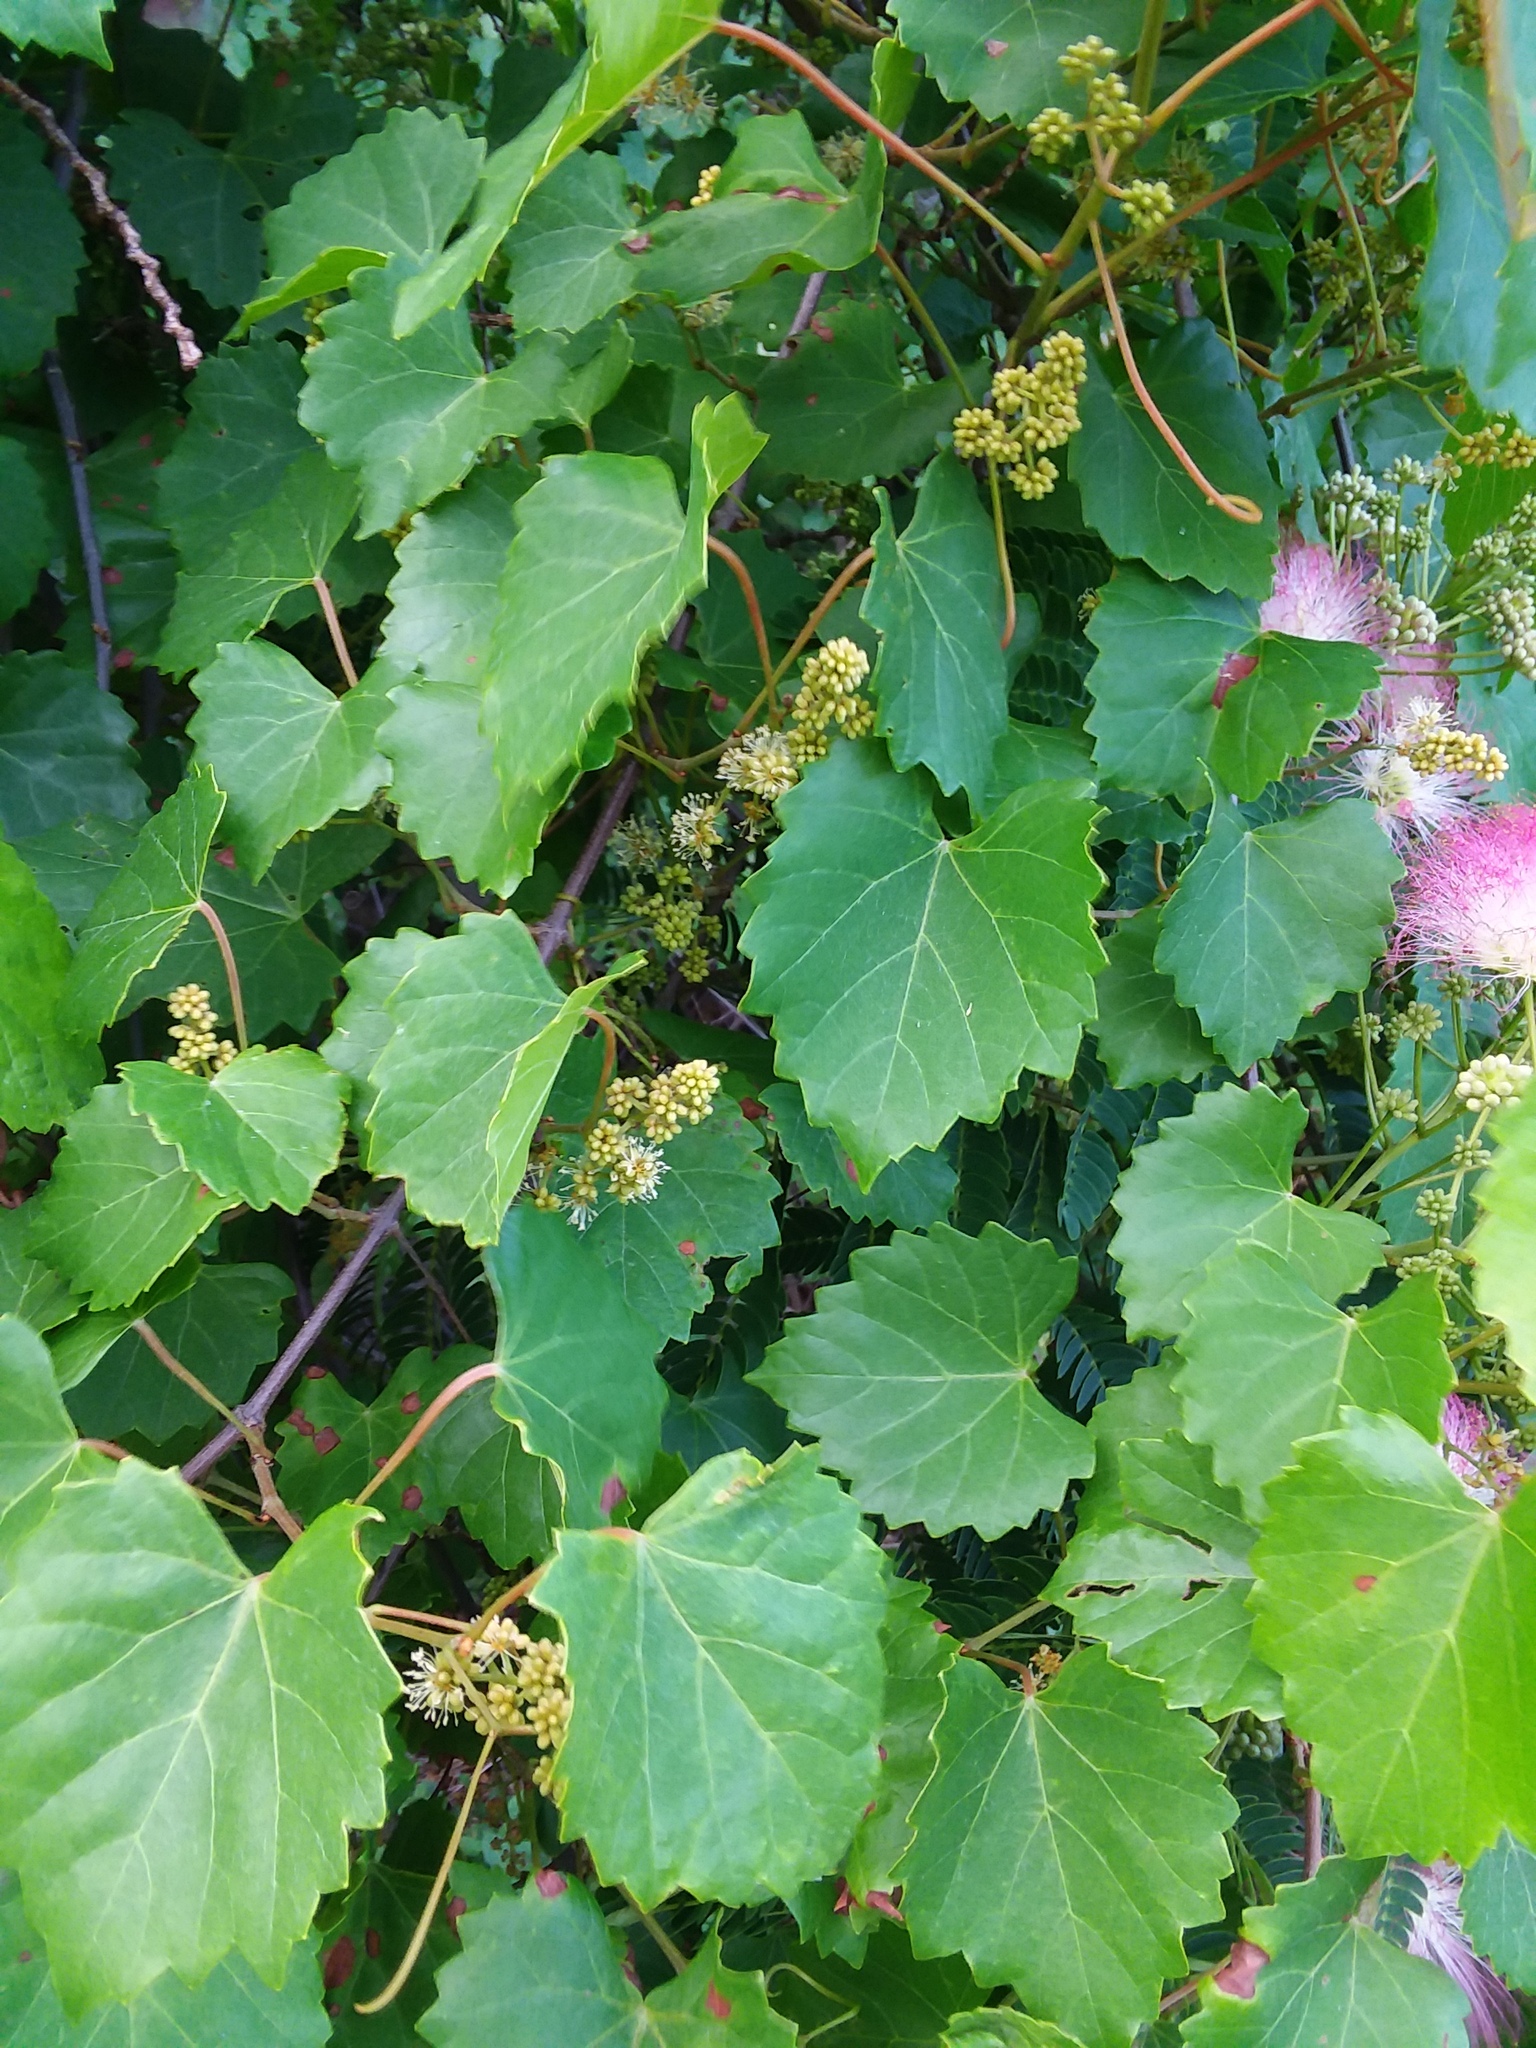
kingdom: Plantae
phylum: Tracheophyta
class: Magnoliopsida
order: Vitales
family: Vitaceae
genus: Vitis
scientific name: Vitis rotundifolia
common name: Muscadine grape
